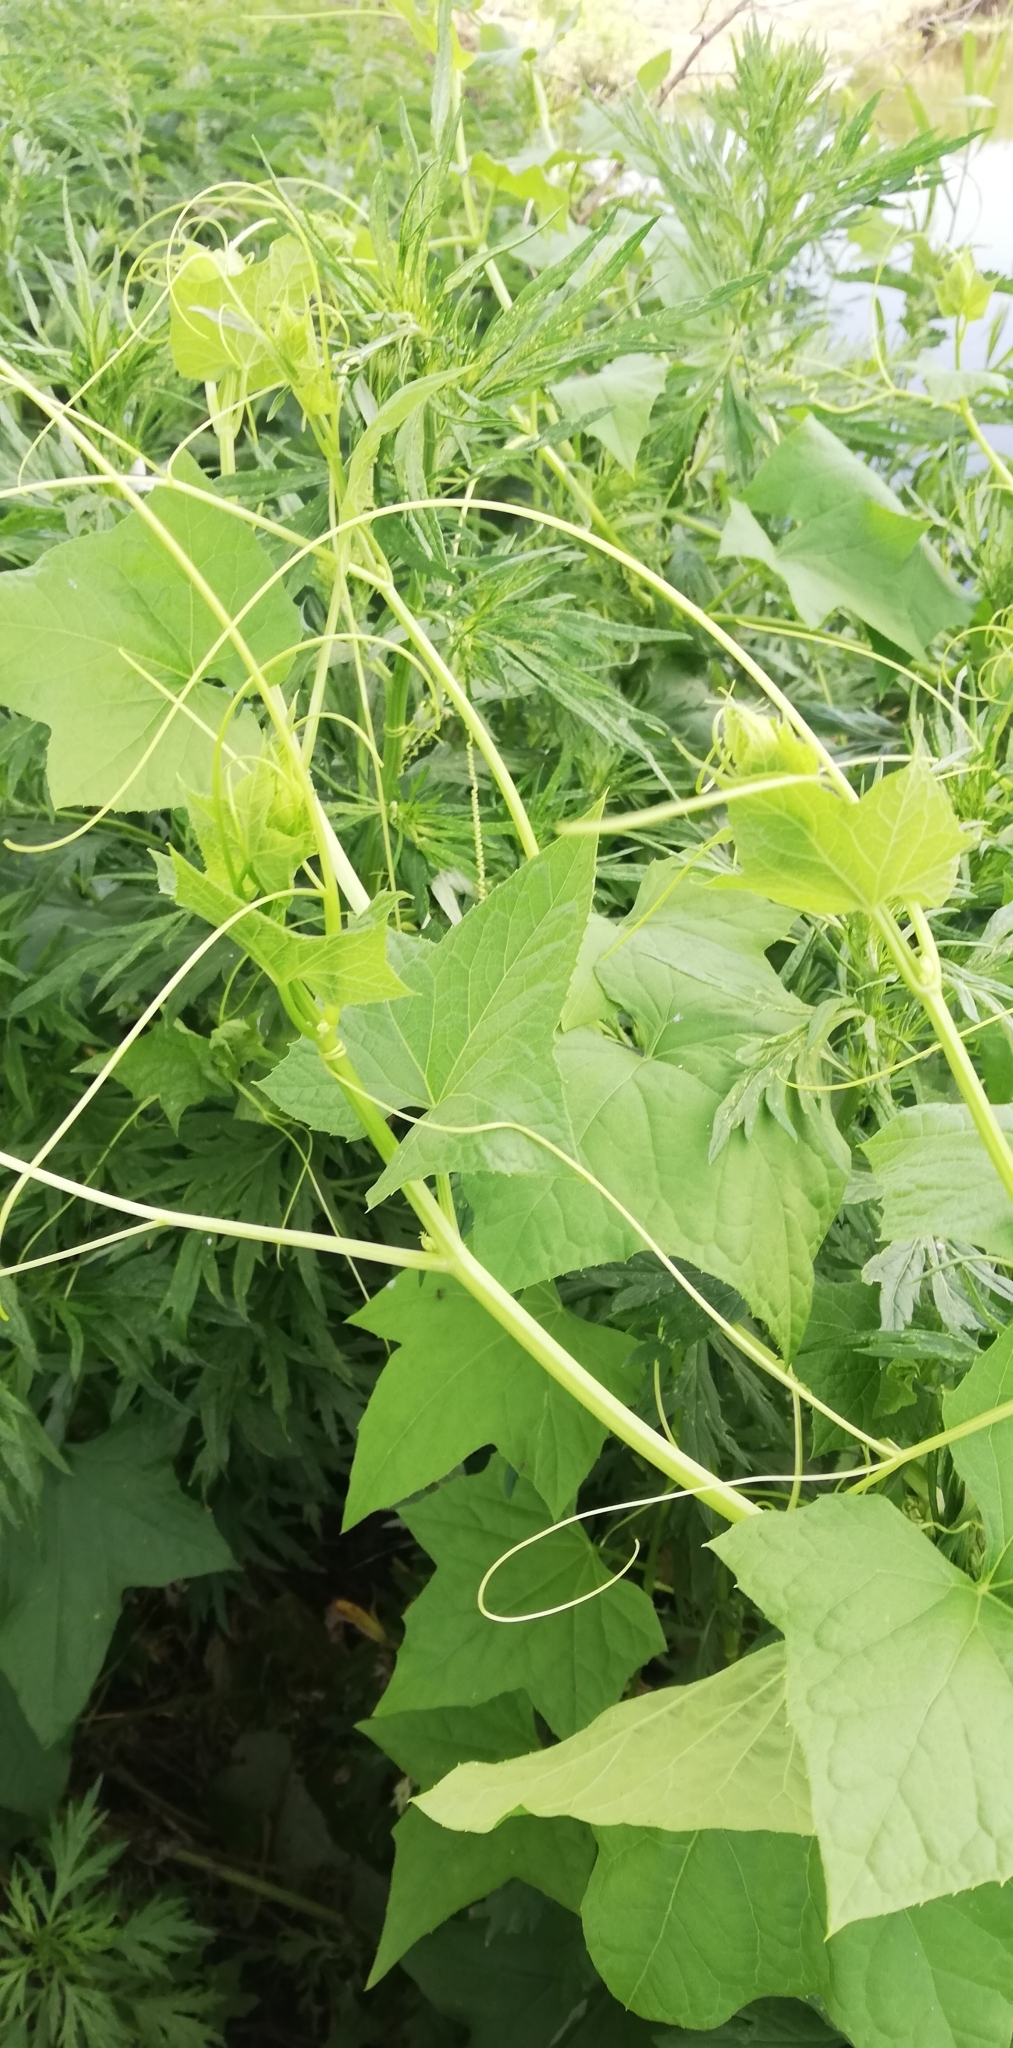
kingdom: Plantae
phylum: Tracheophyta
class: Magnoliopsida
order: Cucurbitales
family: Cucurbitaceae
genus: Echinocystis
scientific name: Echinocystis lobata
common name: Wild cucumber
